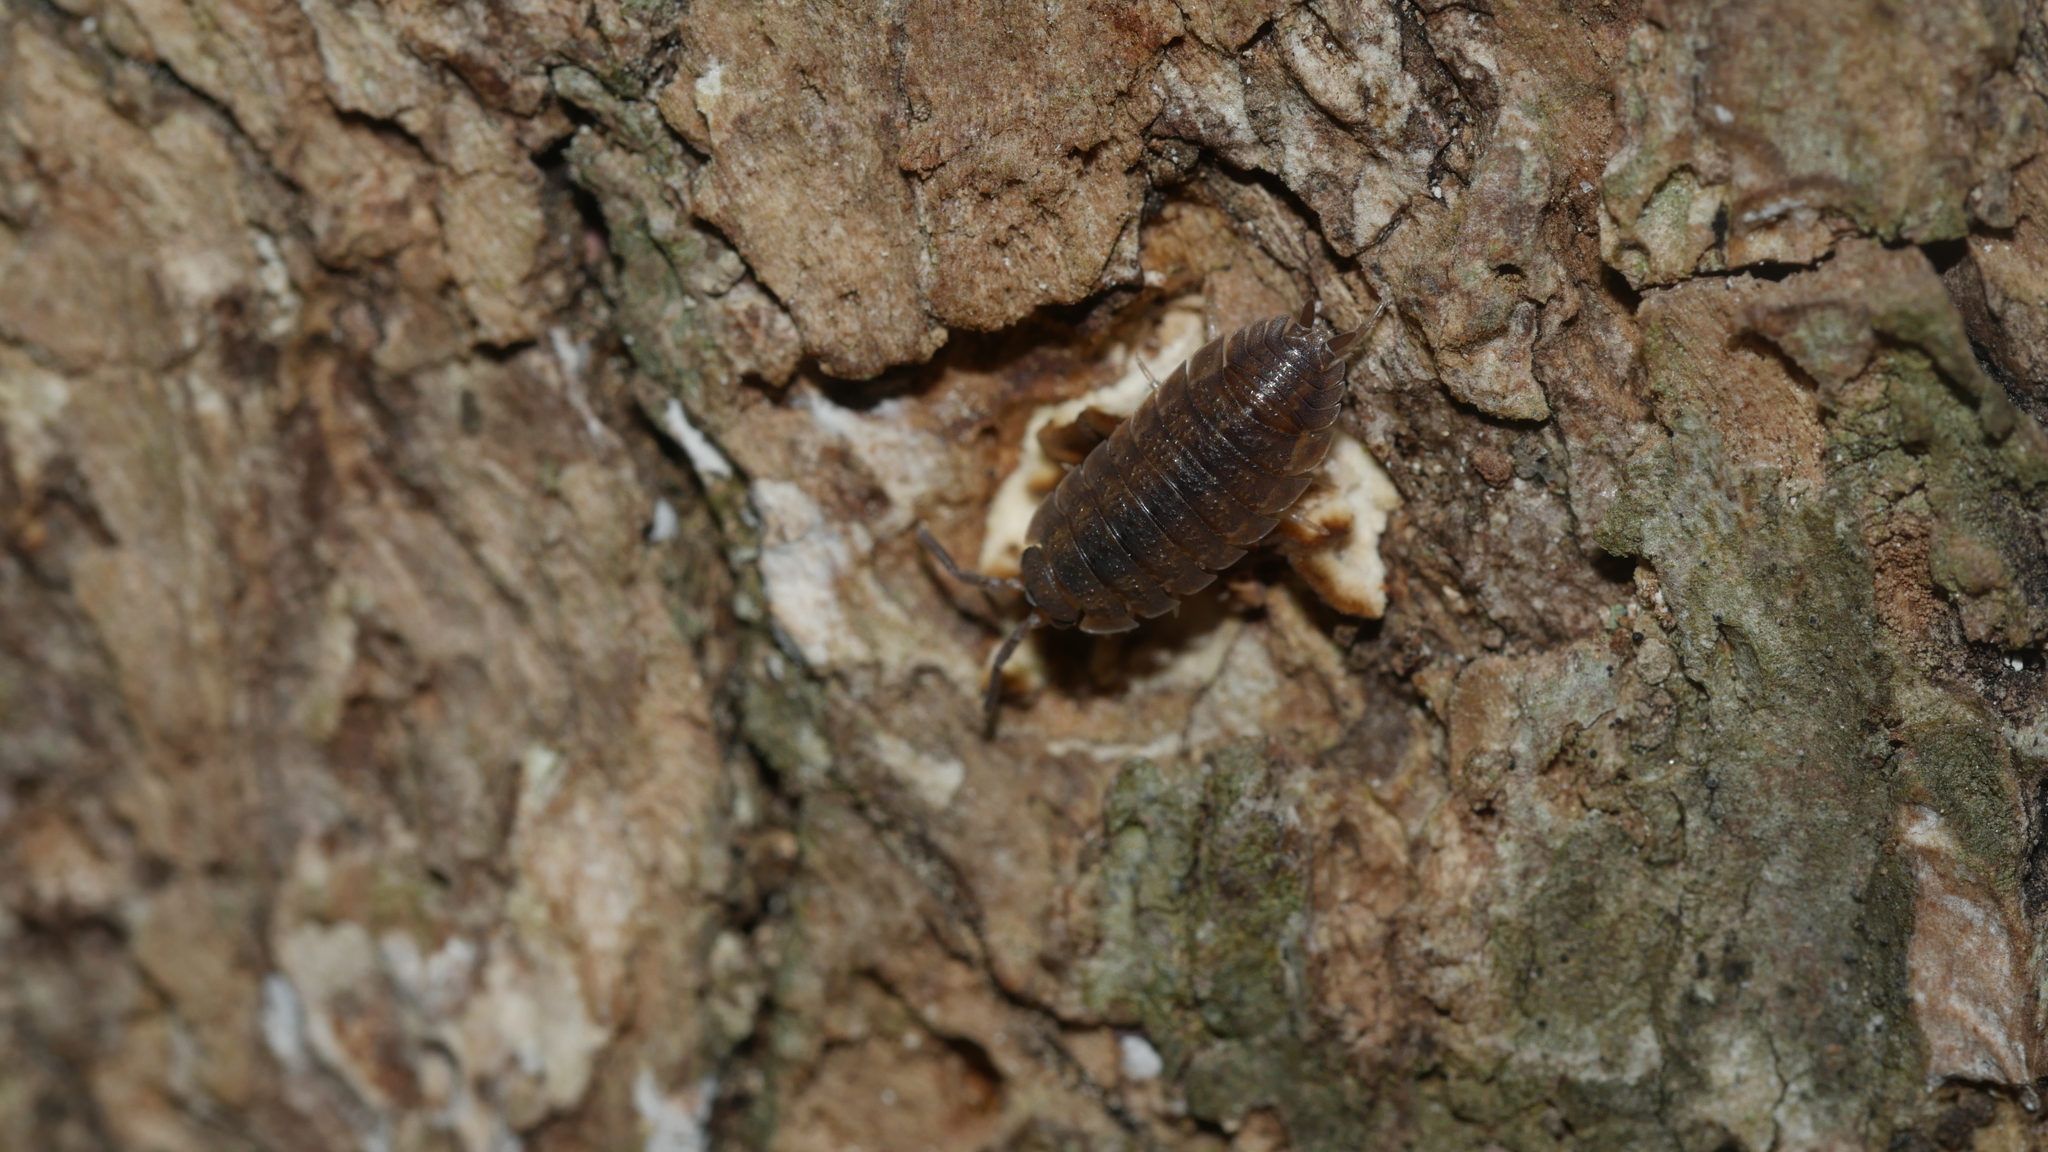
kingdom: Animalia
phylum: Arthropoda
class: Malacostraca
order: Isopoda
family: Porcellionidae
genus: Porcellio
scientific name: Porcellio scaber
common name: Common rough woodlouse
